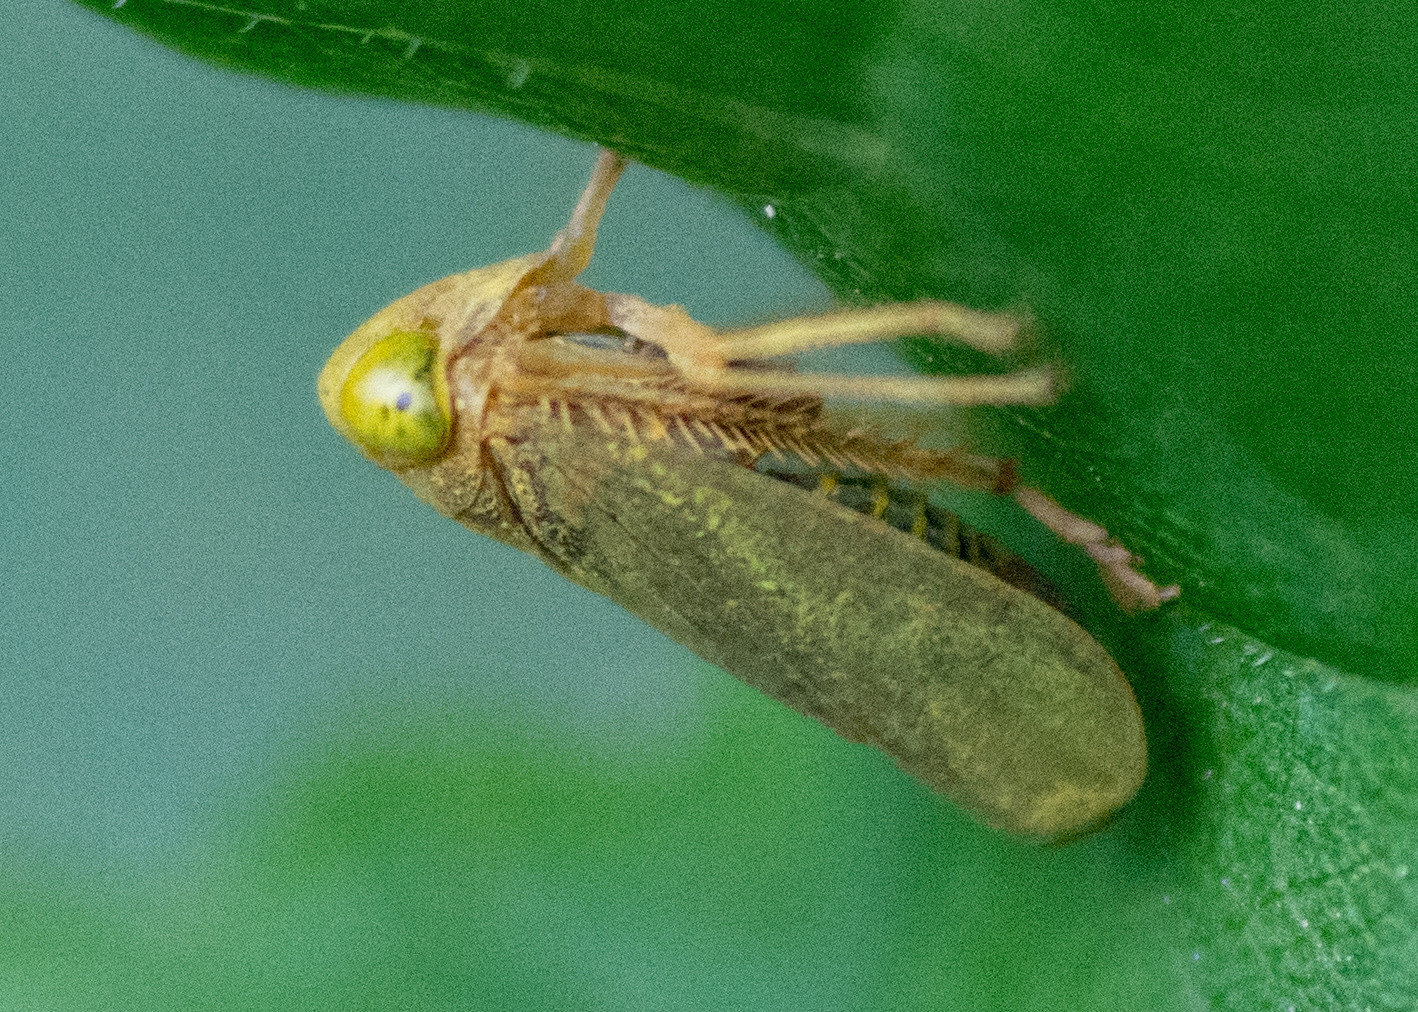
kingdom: Animalia
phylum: Arthropoda
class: Insecta
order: Hemiptera
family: Cicadellidae
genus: Jikradia
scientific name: Jikradia olitoria
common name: Coppery leafhopper
